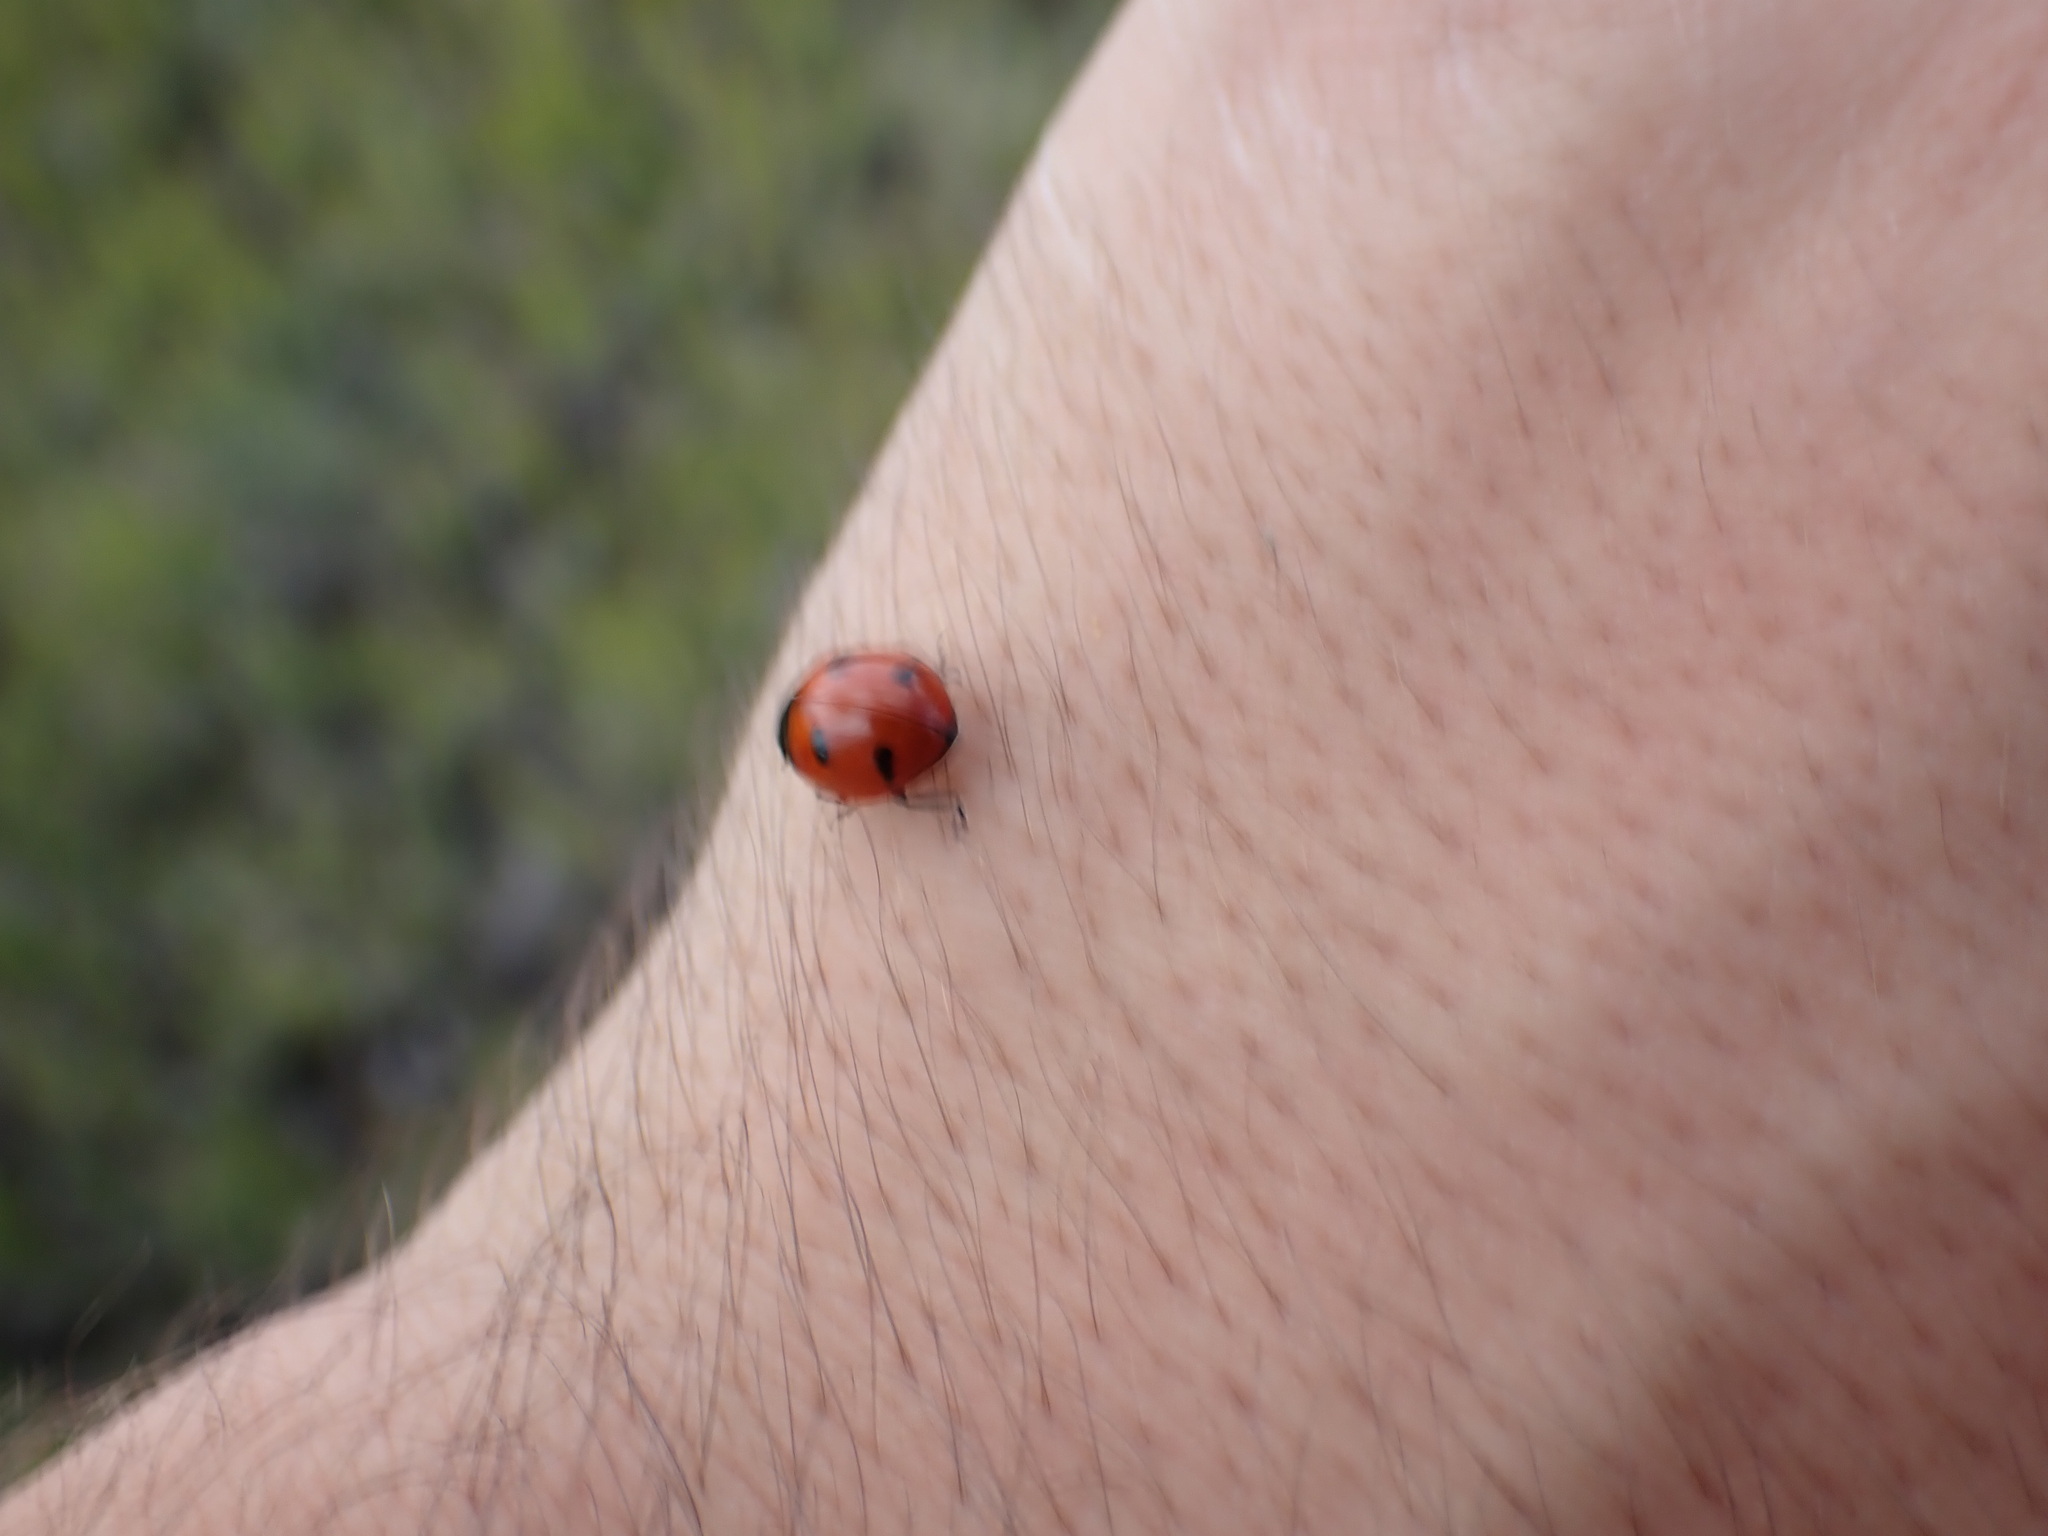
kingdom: Animalia
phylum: Arthropoda
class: Insecta
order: Coleoptera
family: Coccinellidae
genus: Coccinella
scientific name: Coccinella transversoguttata
